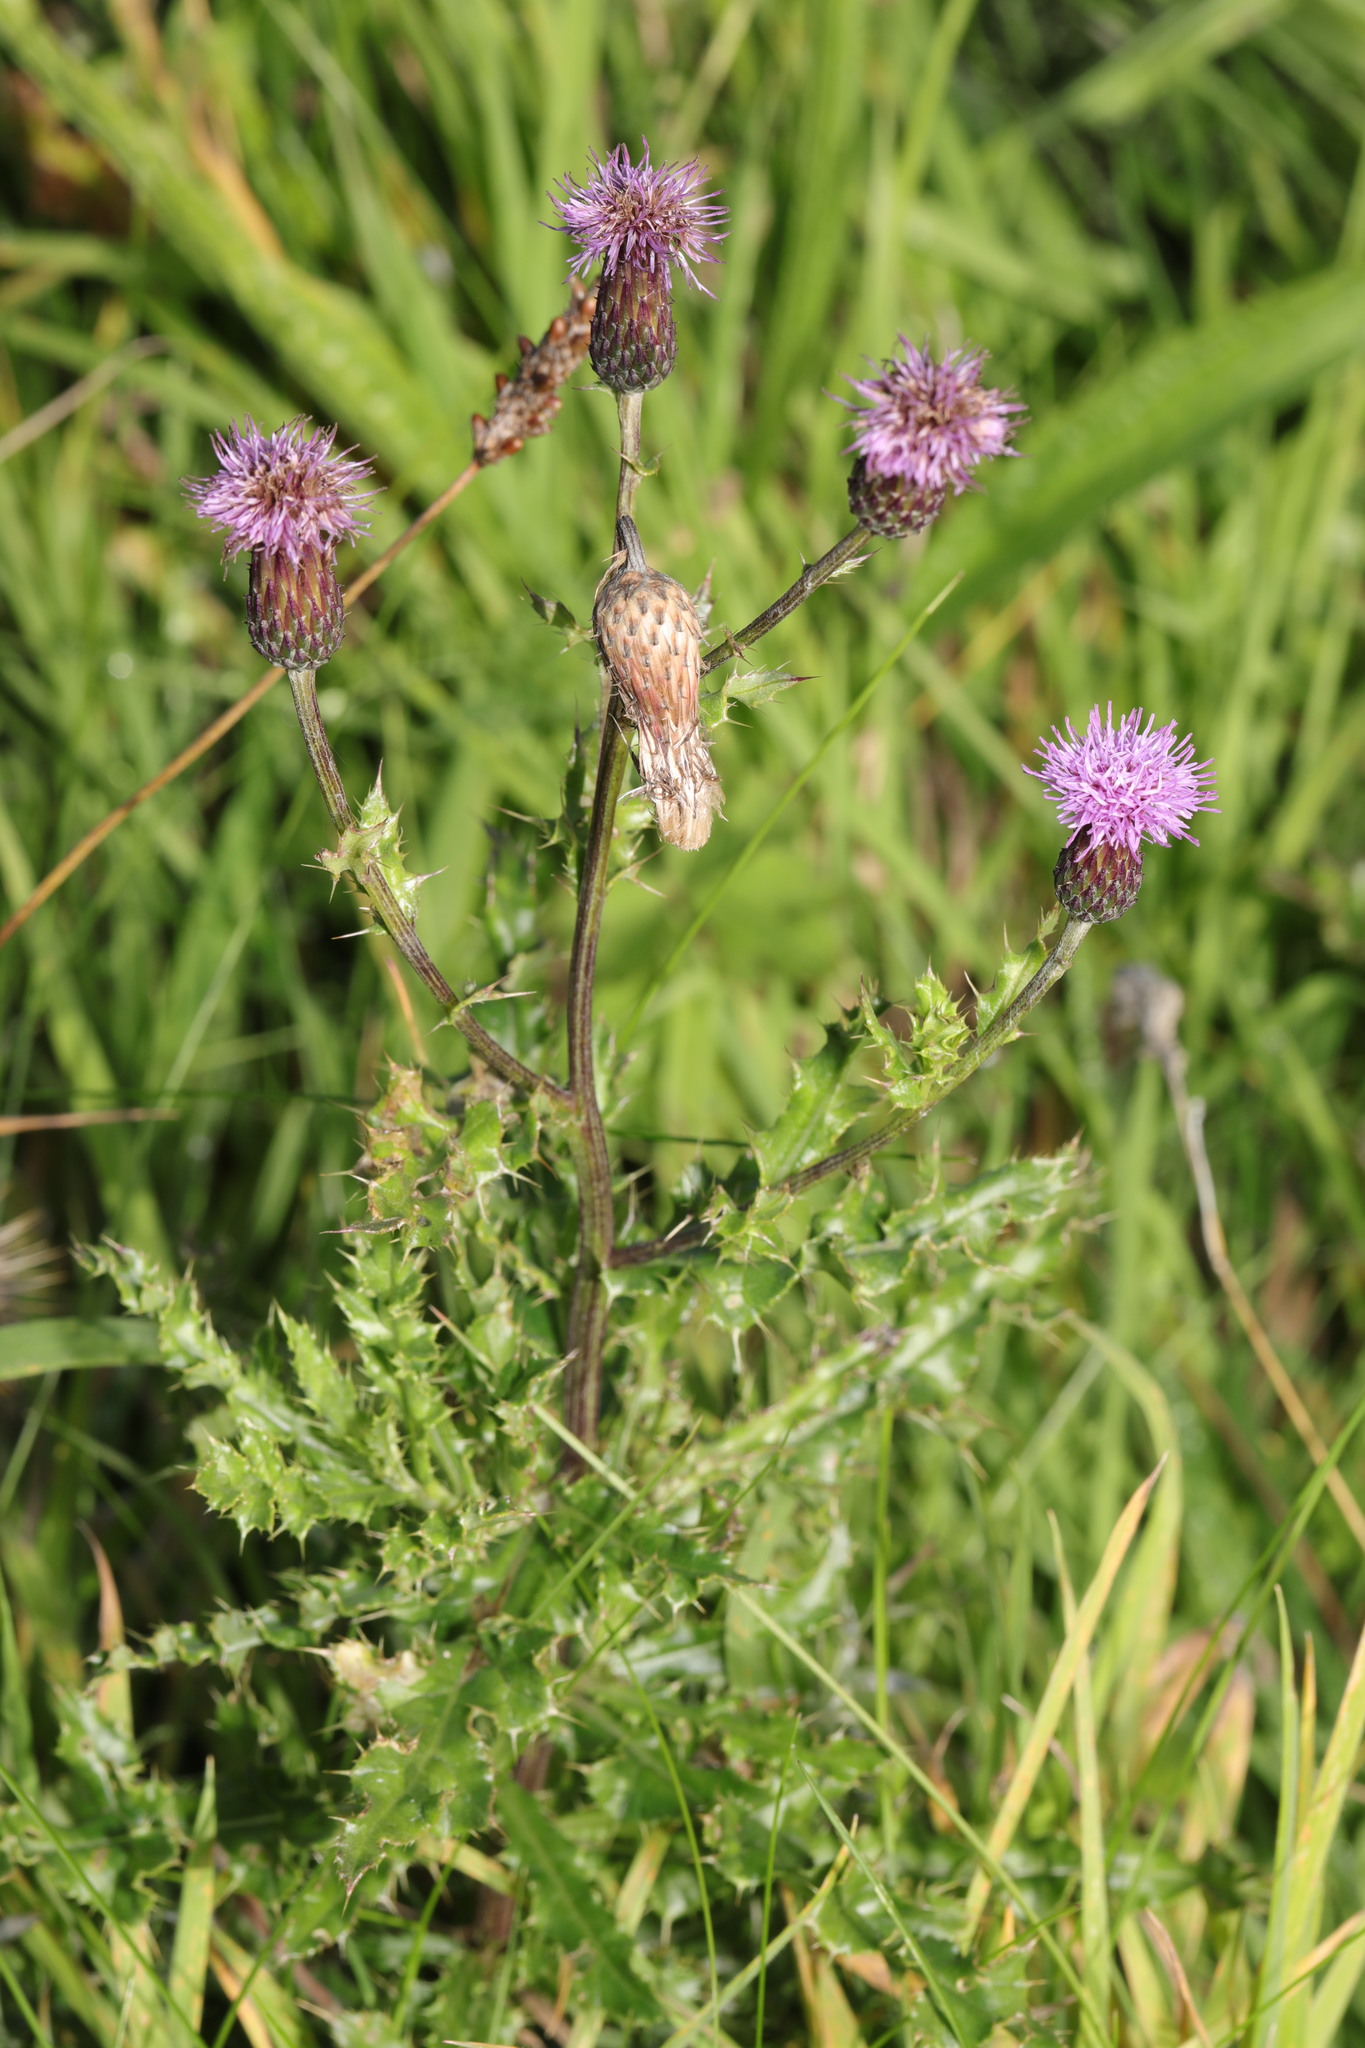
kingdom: Plantae
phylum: Tracheophyta
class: Magnoliopsida
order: Asterales
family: Asteraceae
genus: Cirsium
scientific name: Cirsium arvense
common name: Creeping thistle
